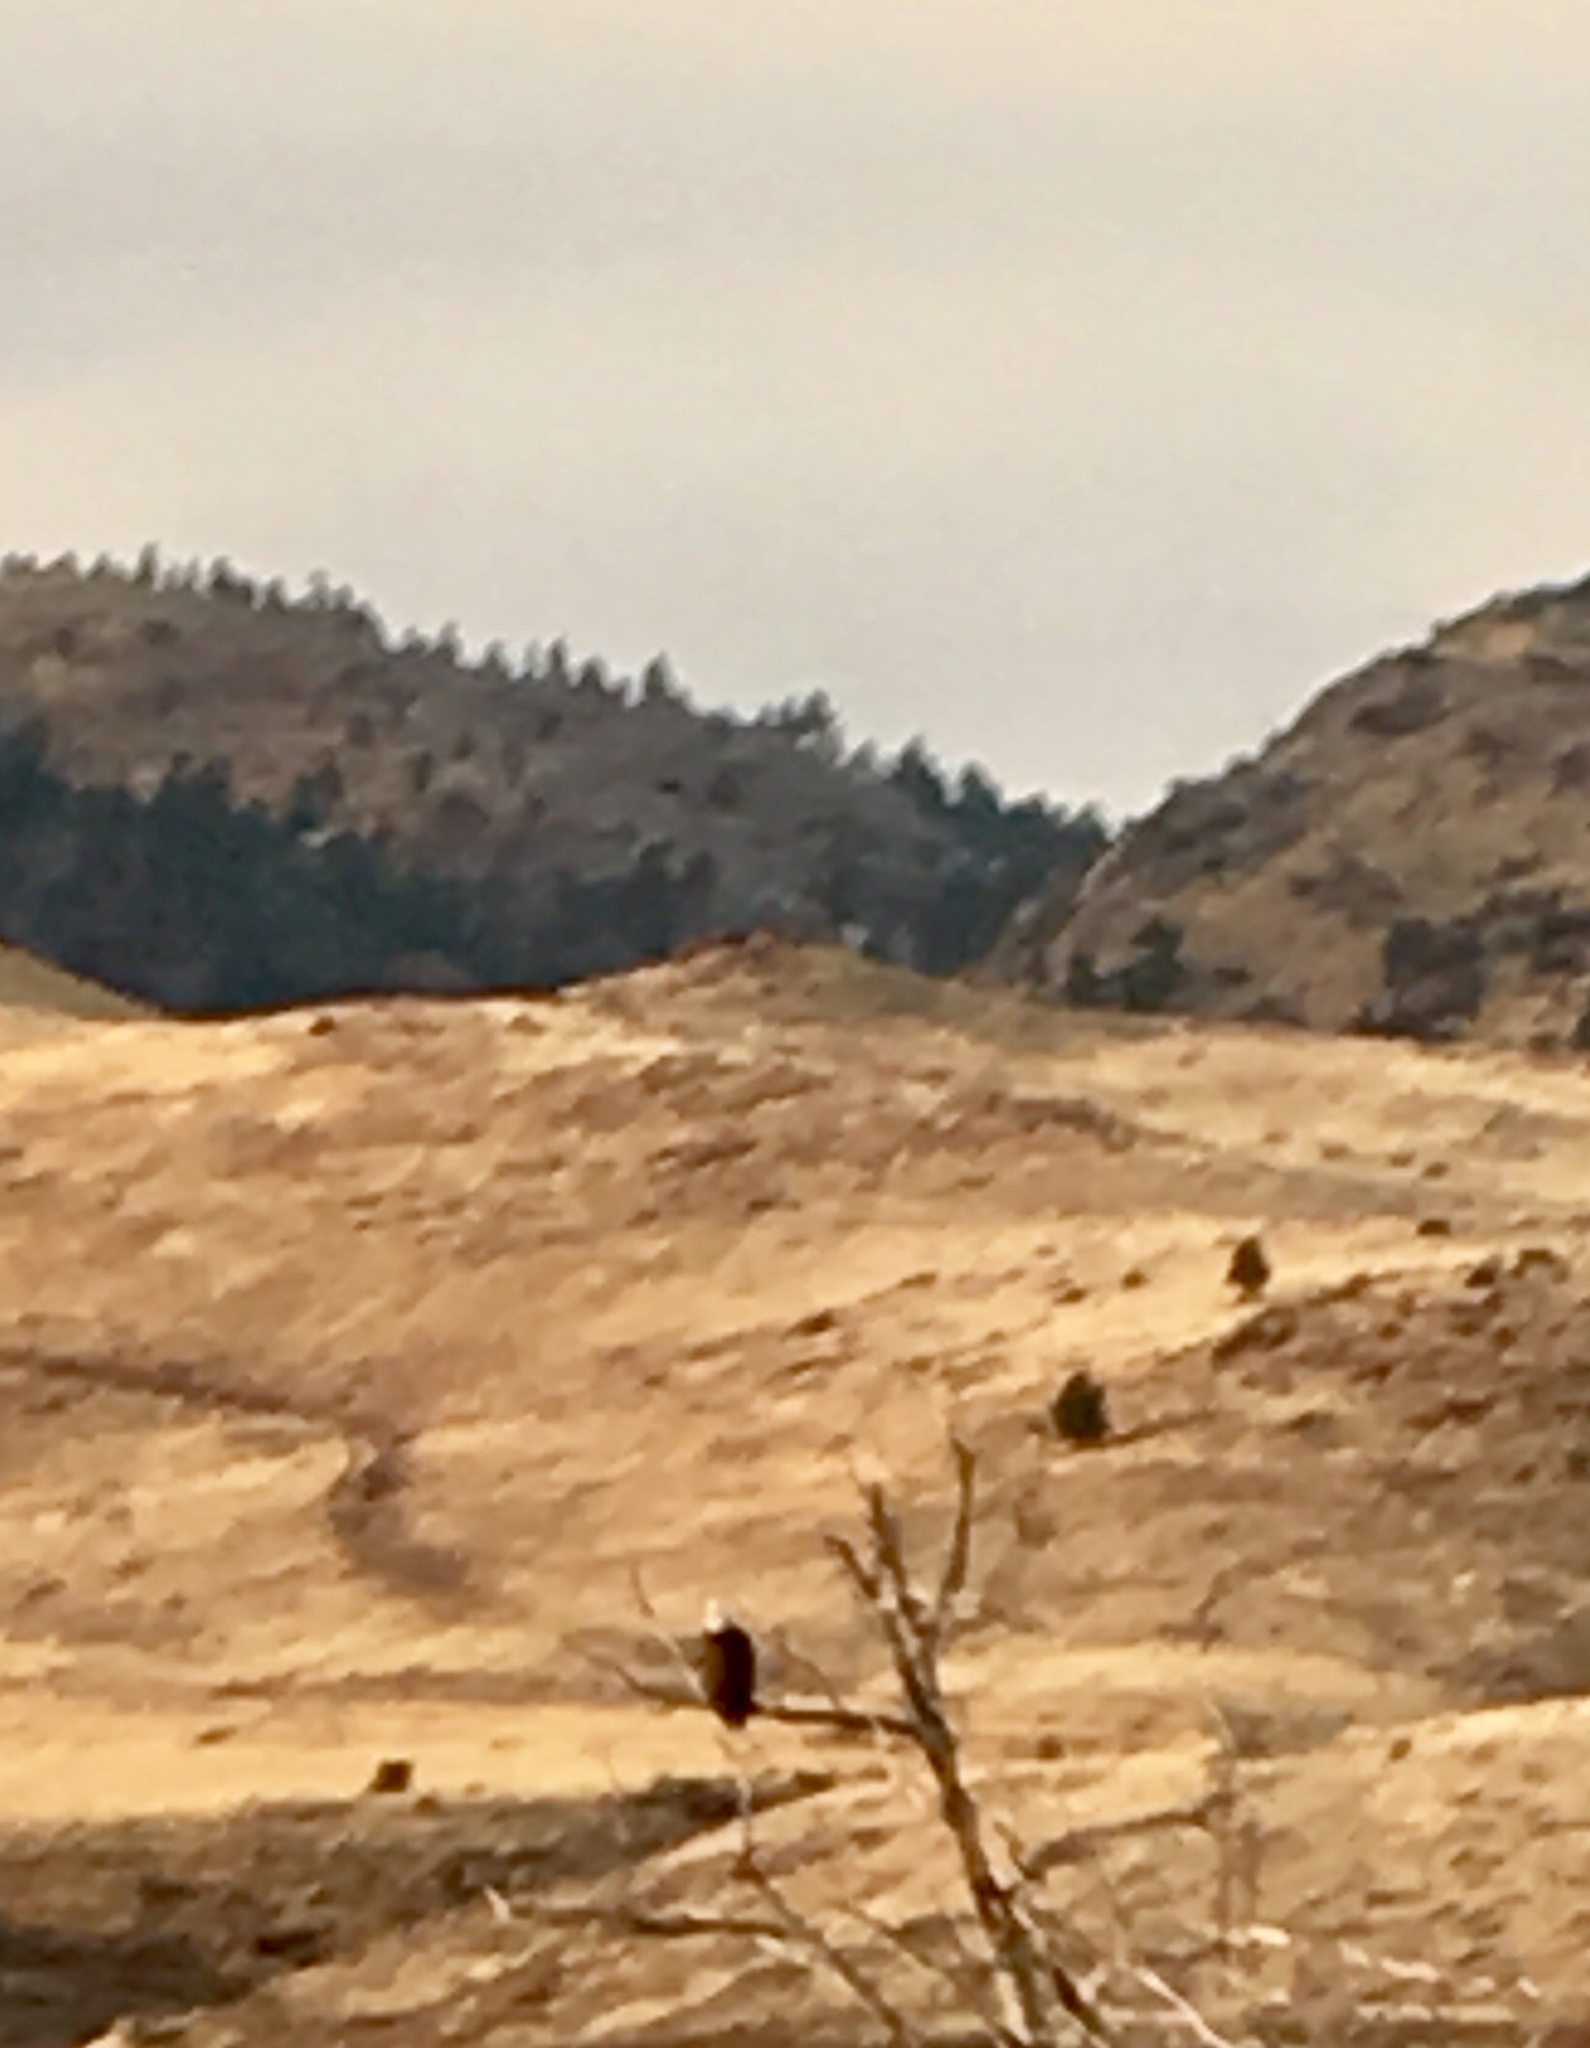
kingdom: Animalia
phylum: Chordata
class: Aves
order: Accipitriformes
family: Accipitridae
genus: Haliaeetus
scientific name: Haliaeetus leucocephalus
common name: Bald eagle
